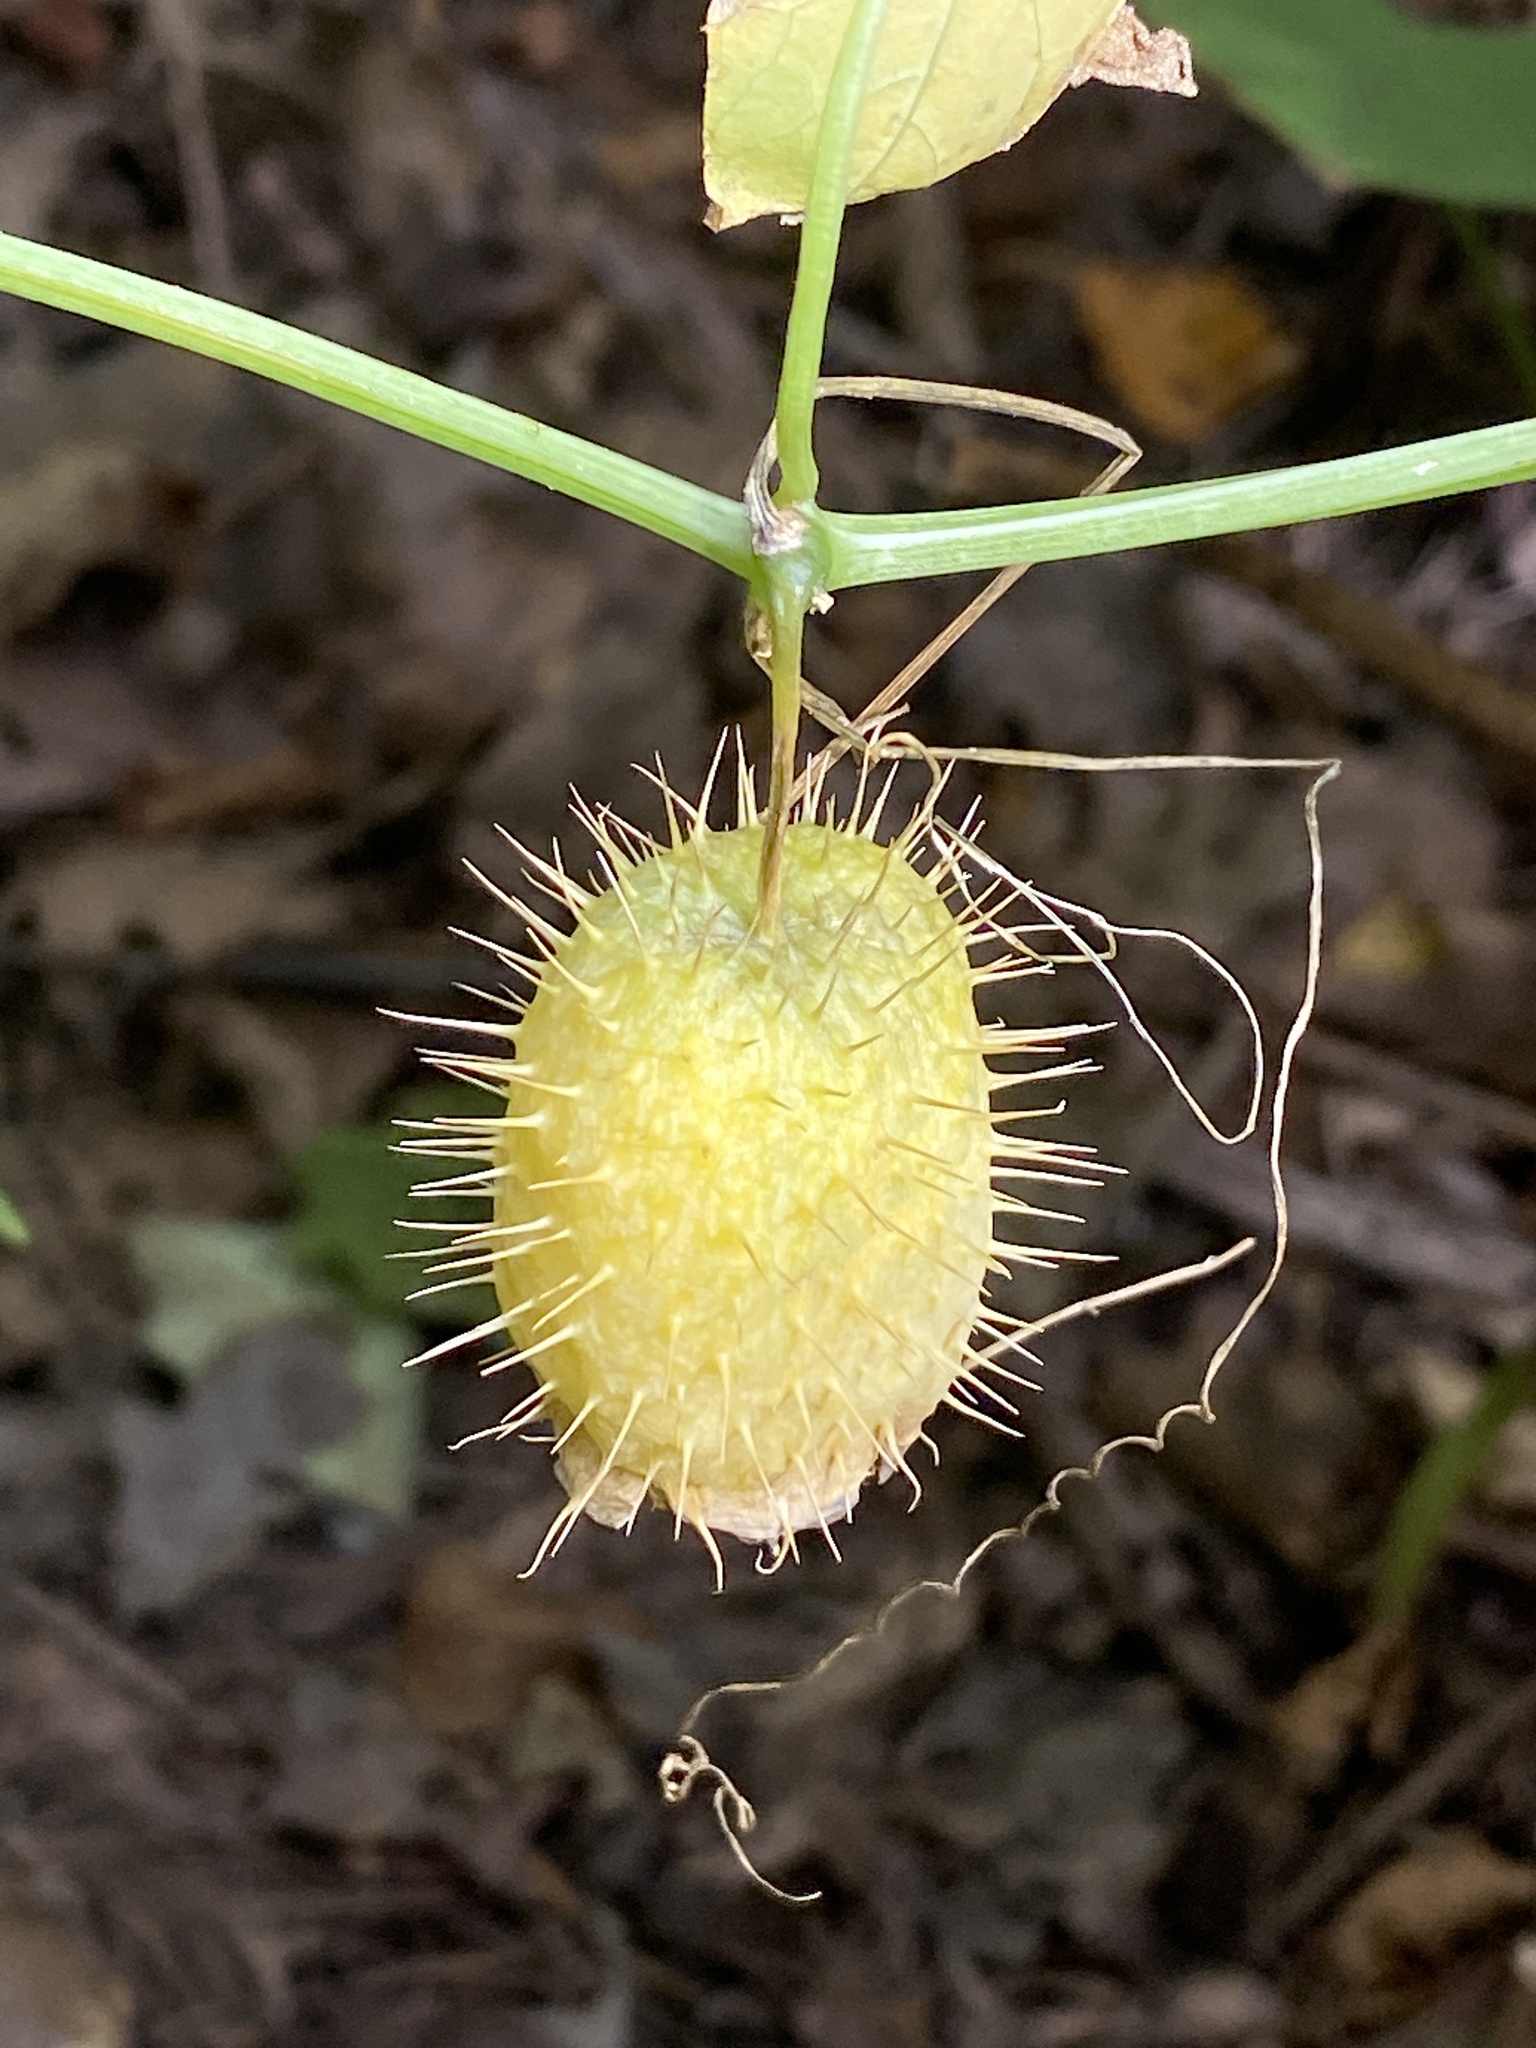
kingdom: Plantae
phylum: Tracheophyta
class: Magnoliopsida
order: Cucurbitales
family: Cucurbitaceae
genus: Echinocystis
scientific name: Echinocystis lobata
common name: Wild cucumber
